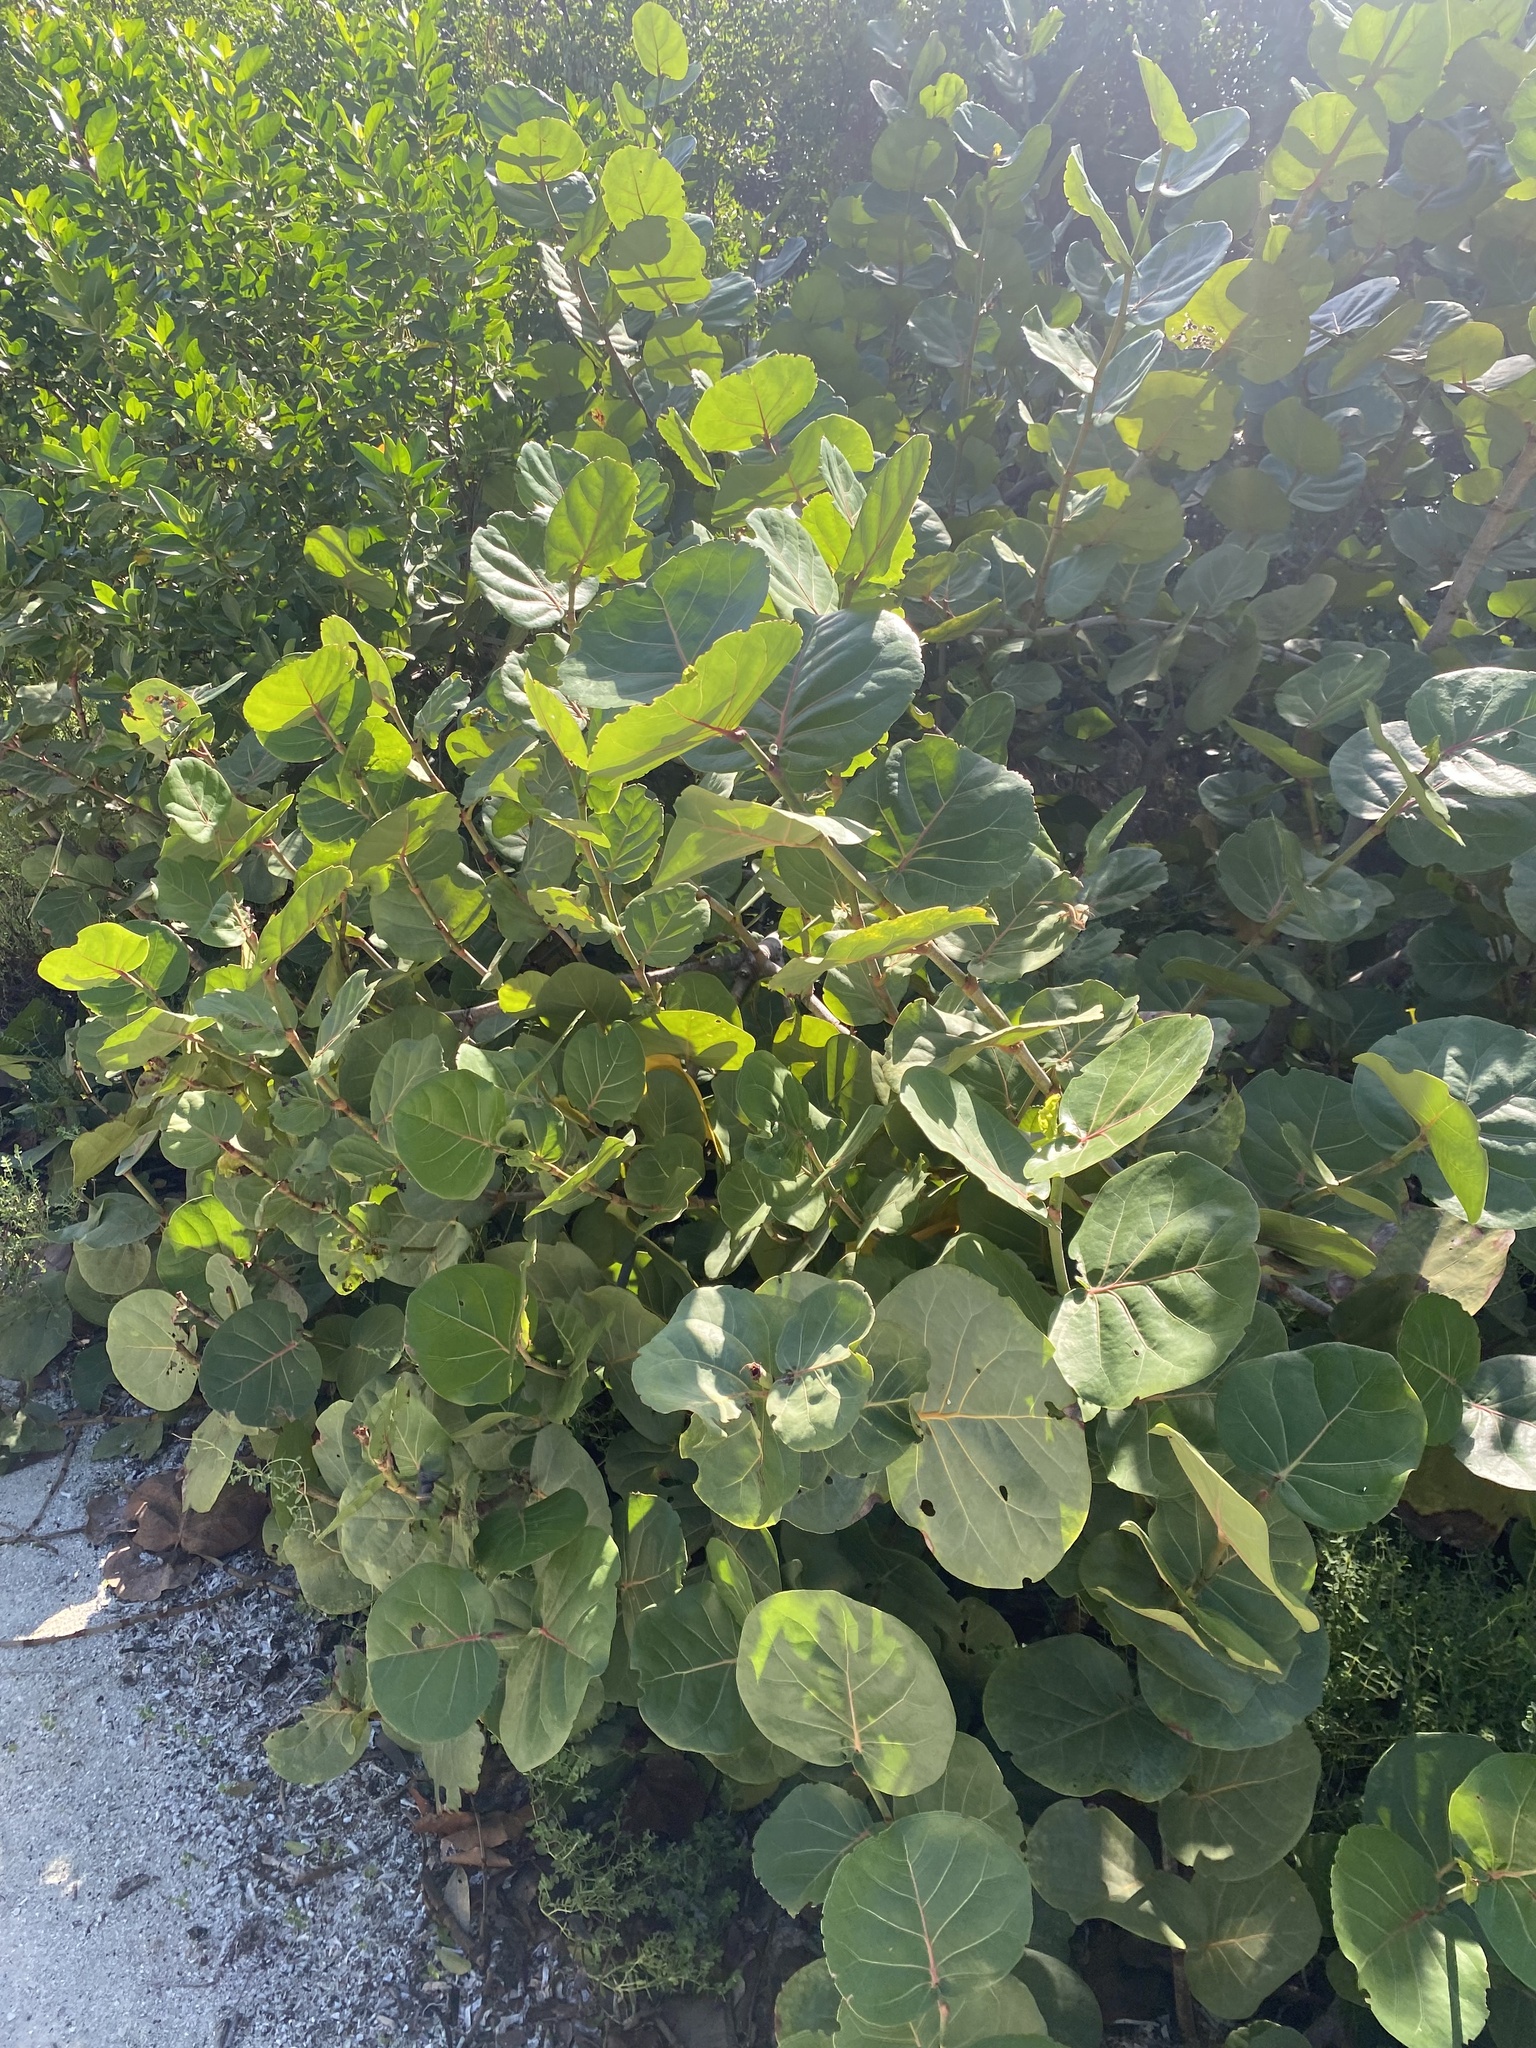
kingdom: Plantae
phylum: Tracheophyta
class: Magnoliopsida
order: Caryophyllales
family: Polygonaceae
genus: Coccoloba
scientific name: Coccoloba uvifera
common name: Seagrape
